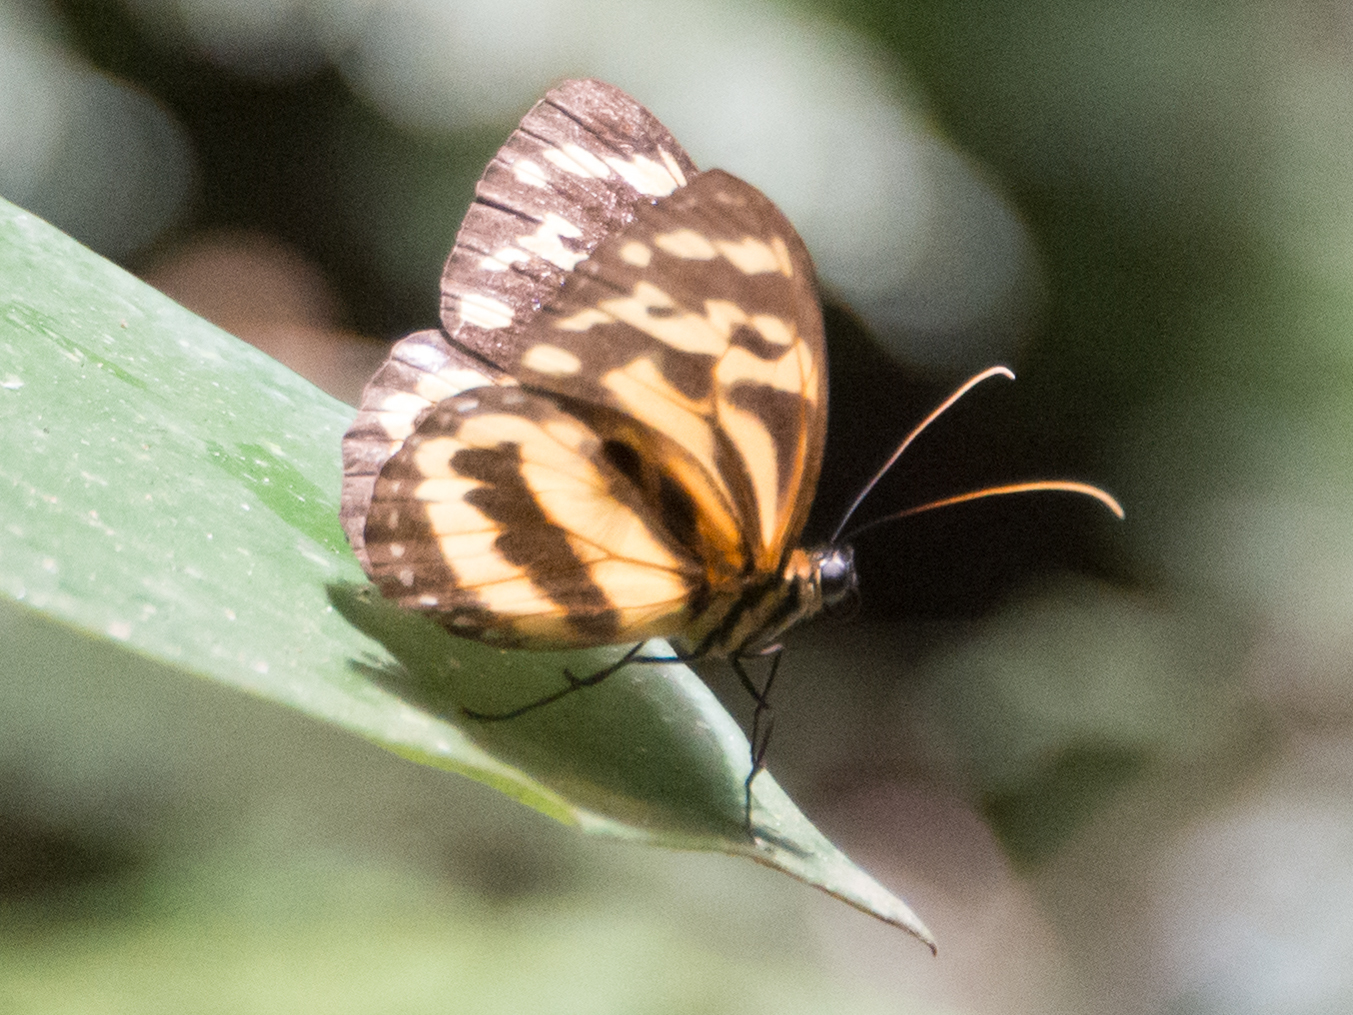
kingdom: Animalia
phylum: Arthropoda
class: Insecta
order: Lepidoptera
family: Nymphalidae
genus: Tithorea
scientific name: Tithorea harmonia
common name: Harmonia tigerwing
